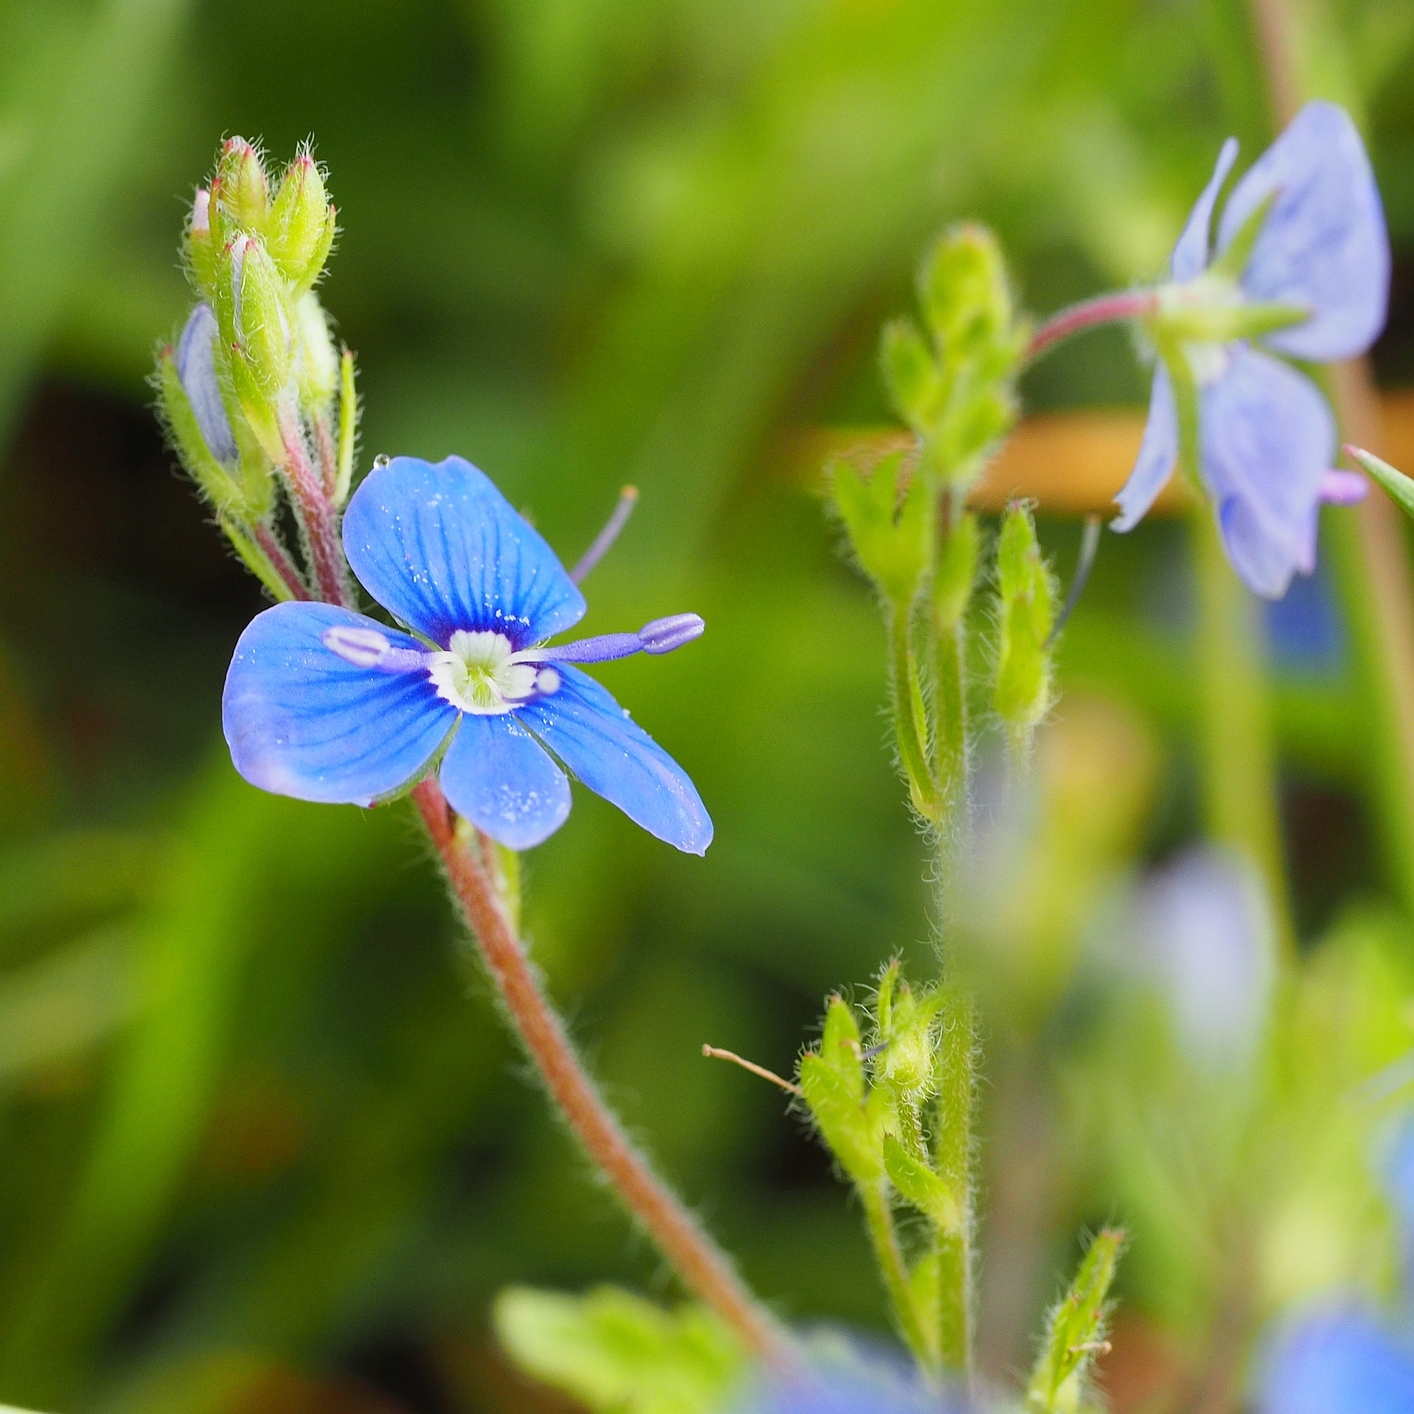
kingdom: Plantae
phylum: Tracheophyta
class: Magnoliopsida
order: Lamiales
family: Plantaginaceae
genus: Veronica
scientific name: Veronica chamaedrys
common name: Germander speedwell
